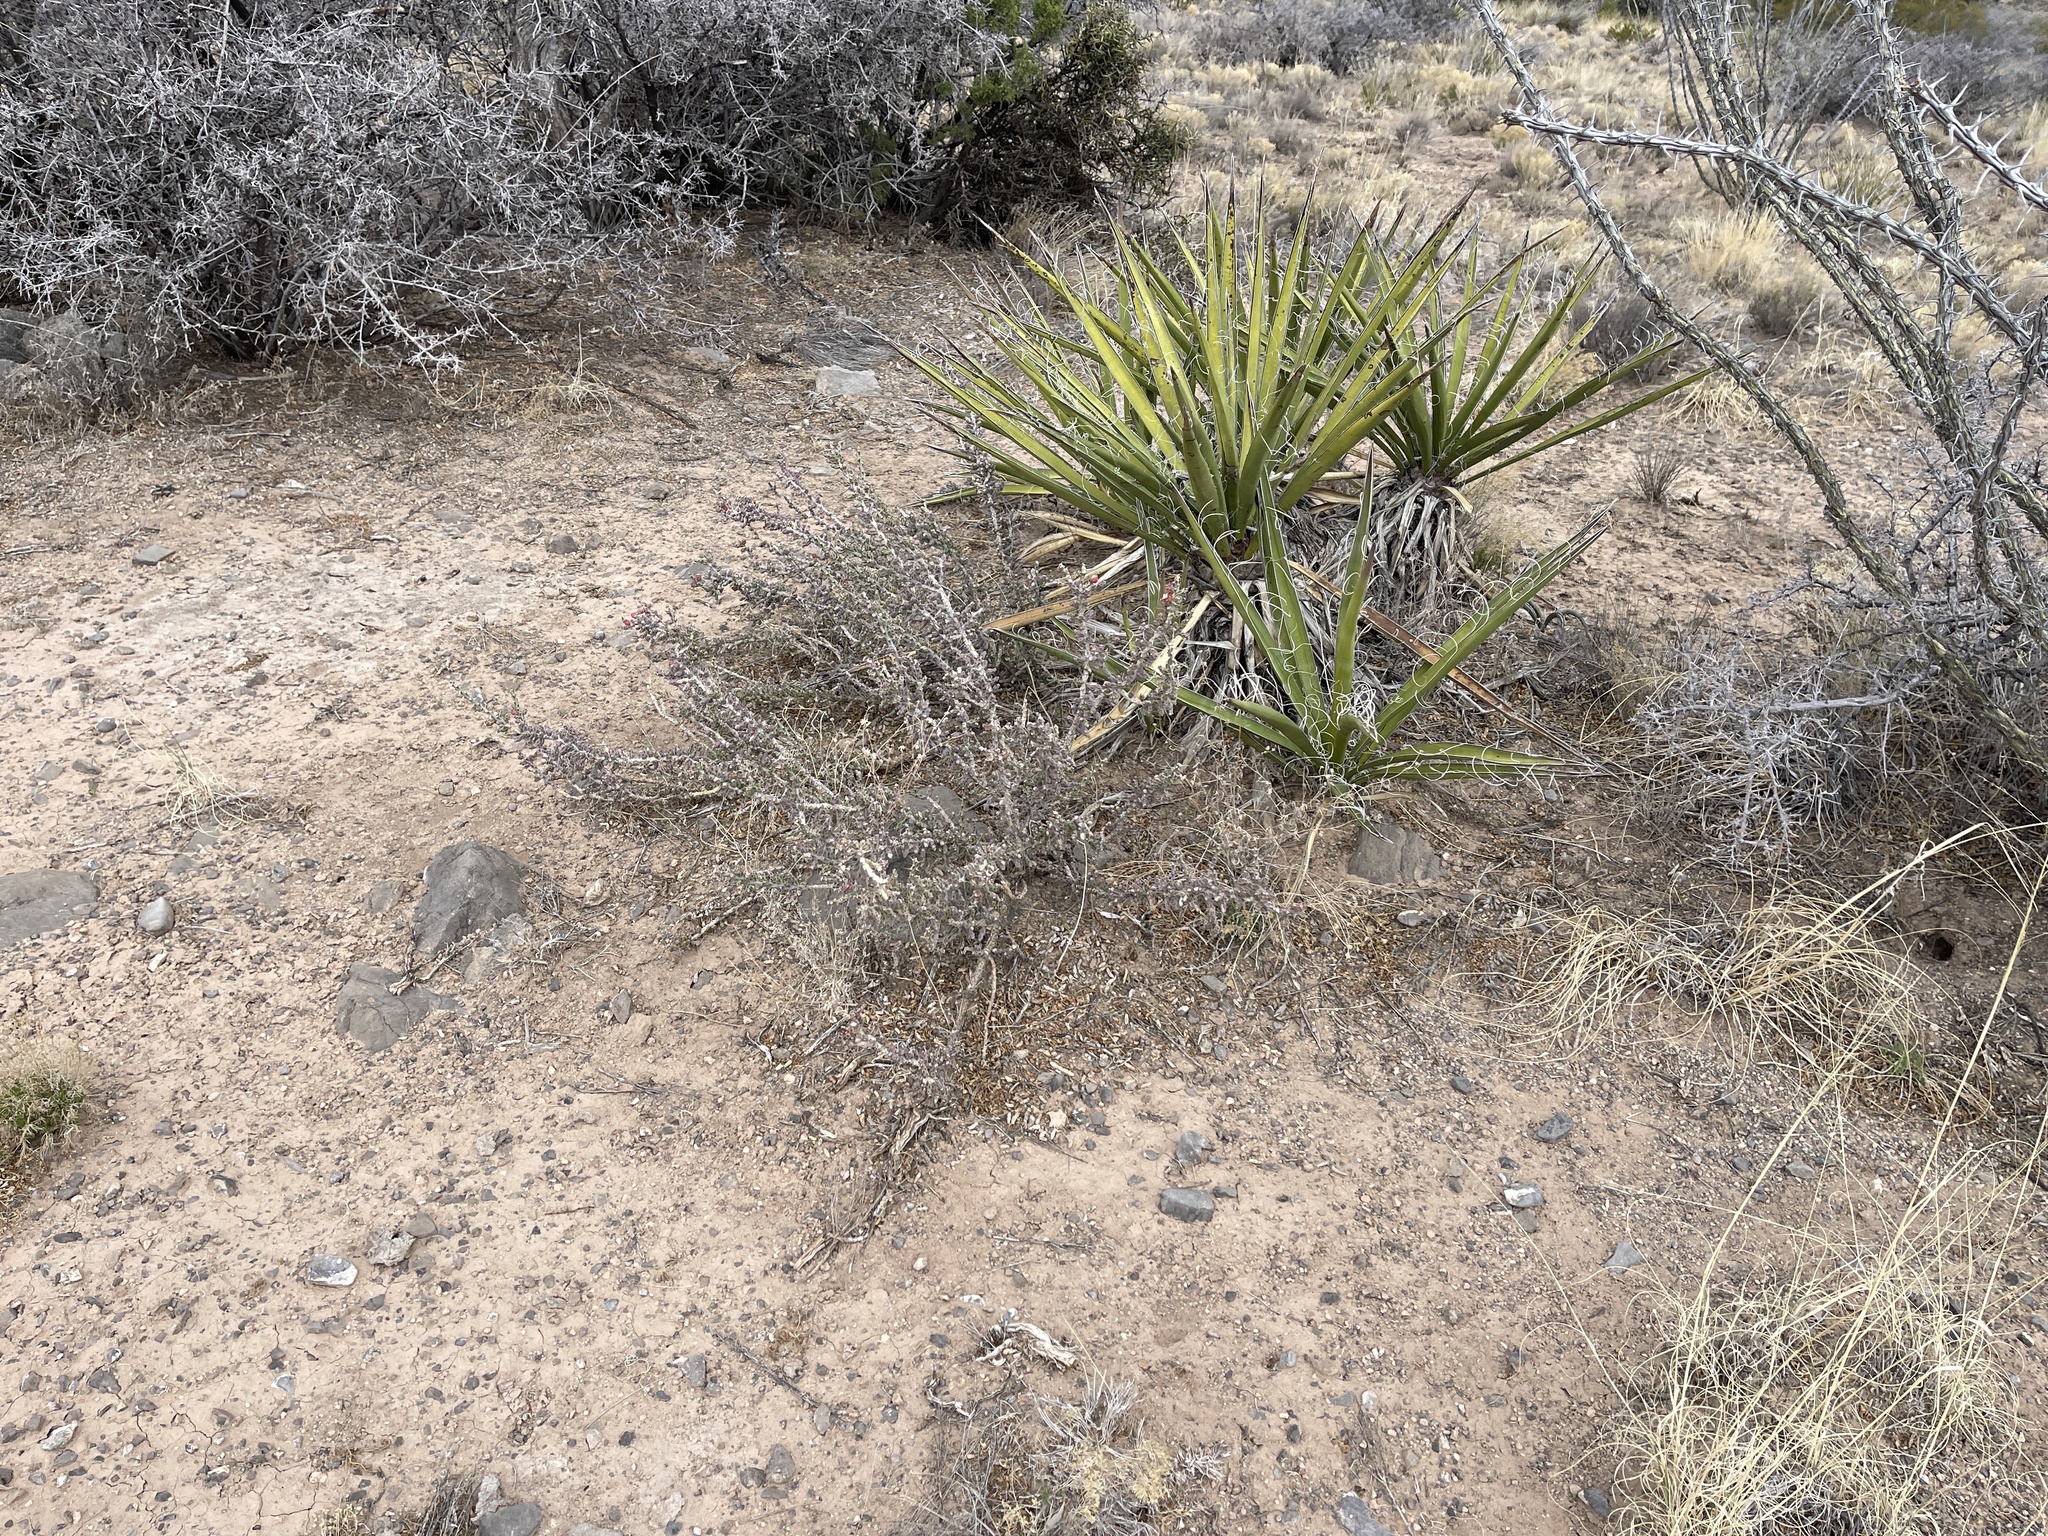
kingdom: Plantae
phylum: Tracheophyta
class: Magnoliopsida
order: Caryophyllales
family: Cactaceae
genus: Cylindropuntia
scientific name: Cylindropuntia leptocaulis
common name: Christmas cactus
